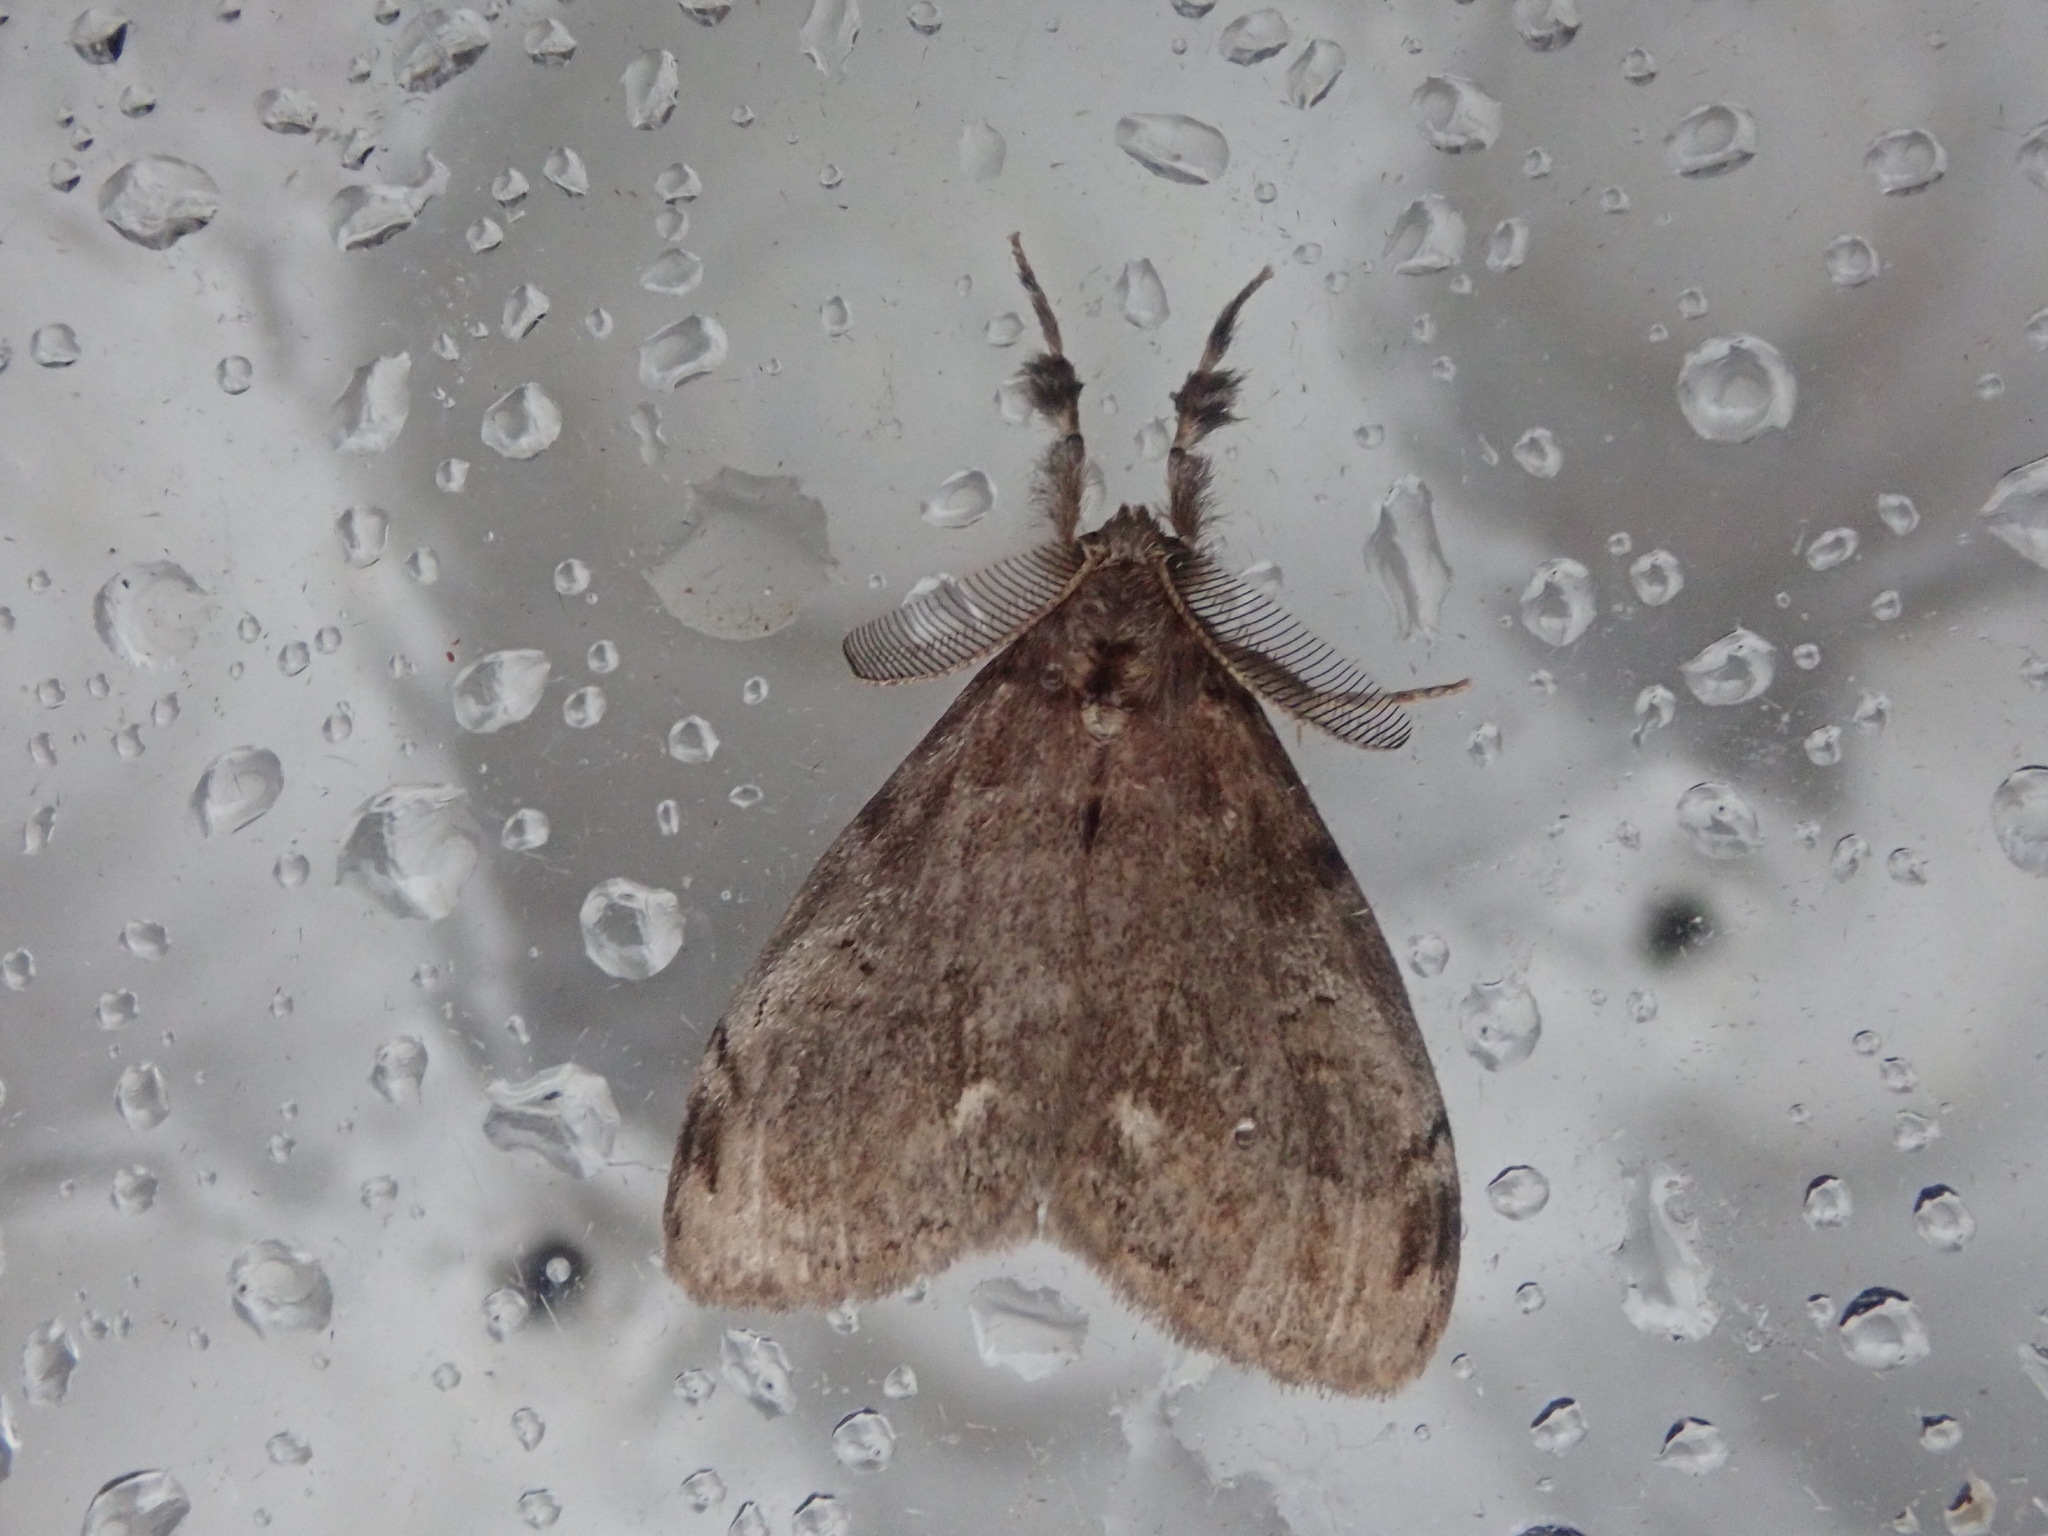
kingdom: Animalia
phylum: Arthropoda
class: Insecta
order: Lepidoptera
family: Erebidae
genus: Orgyia
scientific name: Orgyia leucostigma
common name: White-marked tussock moth
